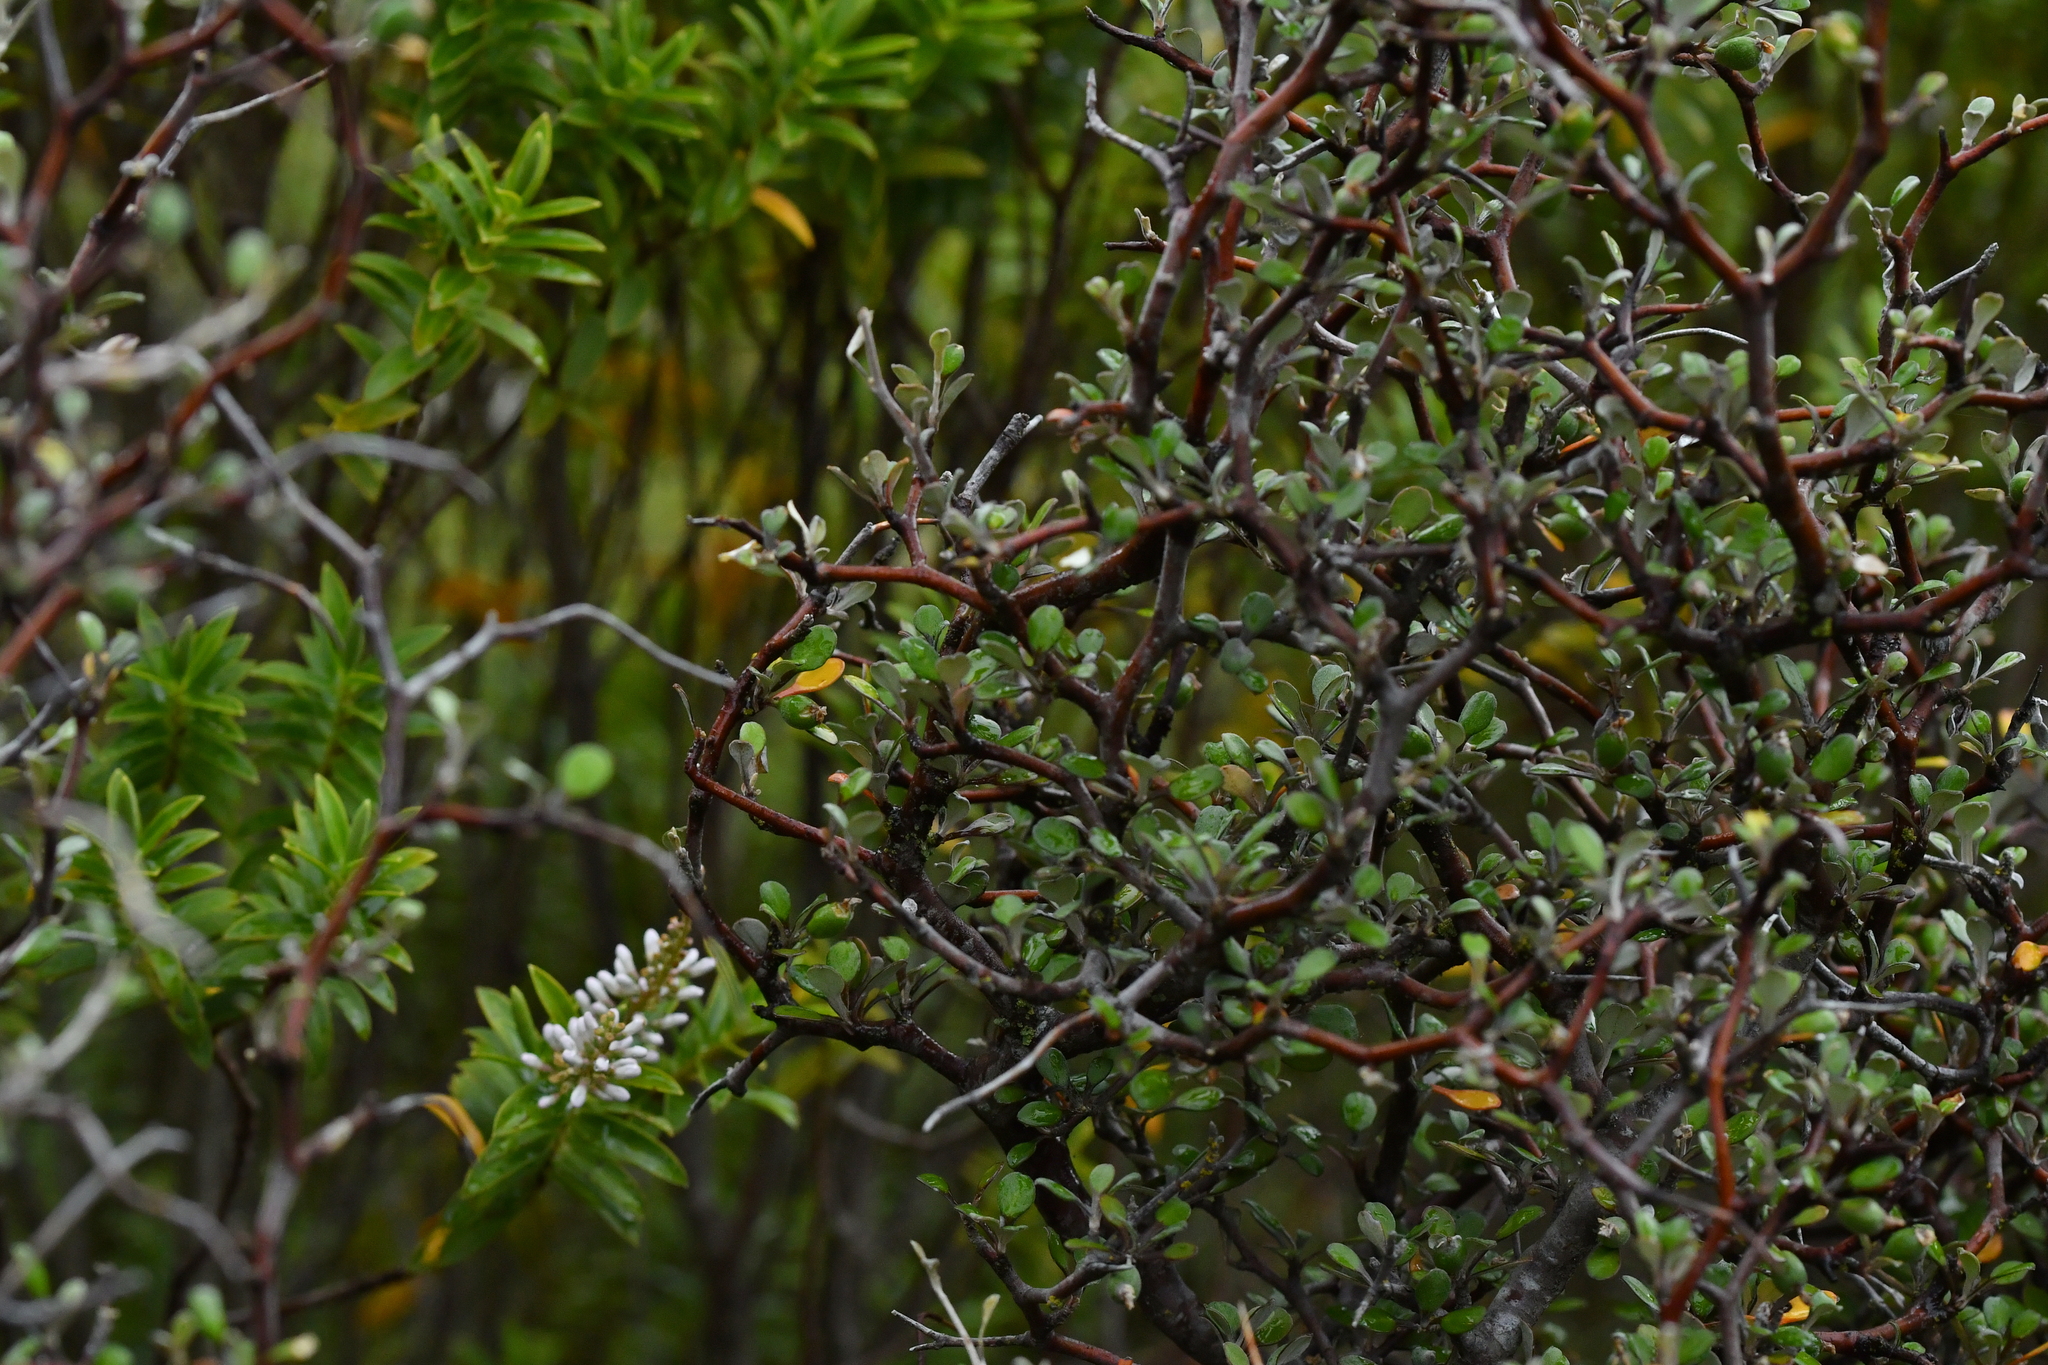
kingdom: Plantae
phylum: Tracheophyta
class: Magnoliopsida
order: Asterales
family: Argophyllaceae
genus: Corokia
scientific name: Corokia cotoneaster
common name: Wire nettingbush
